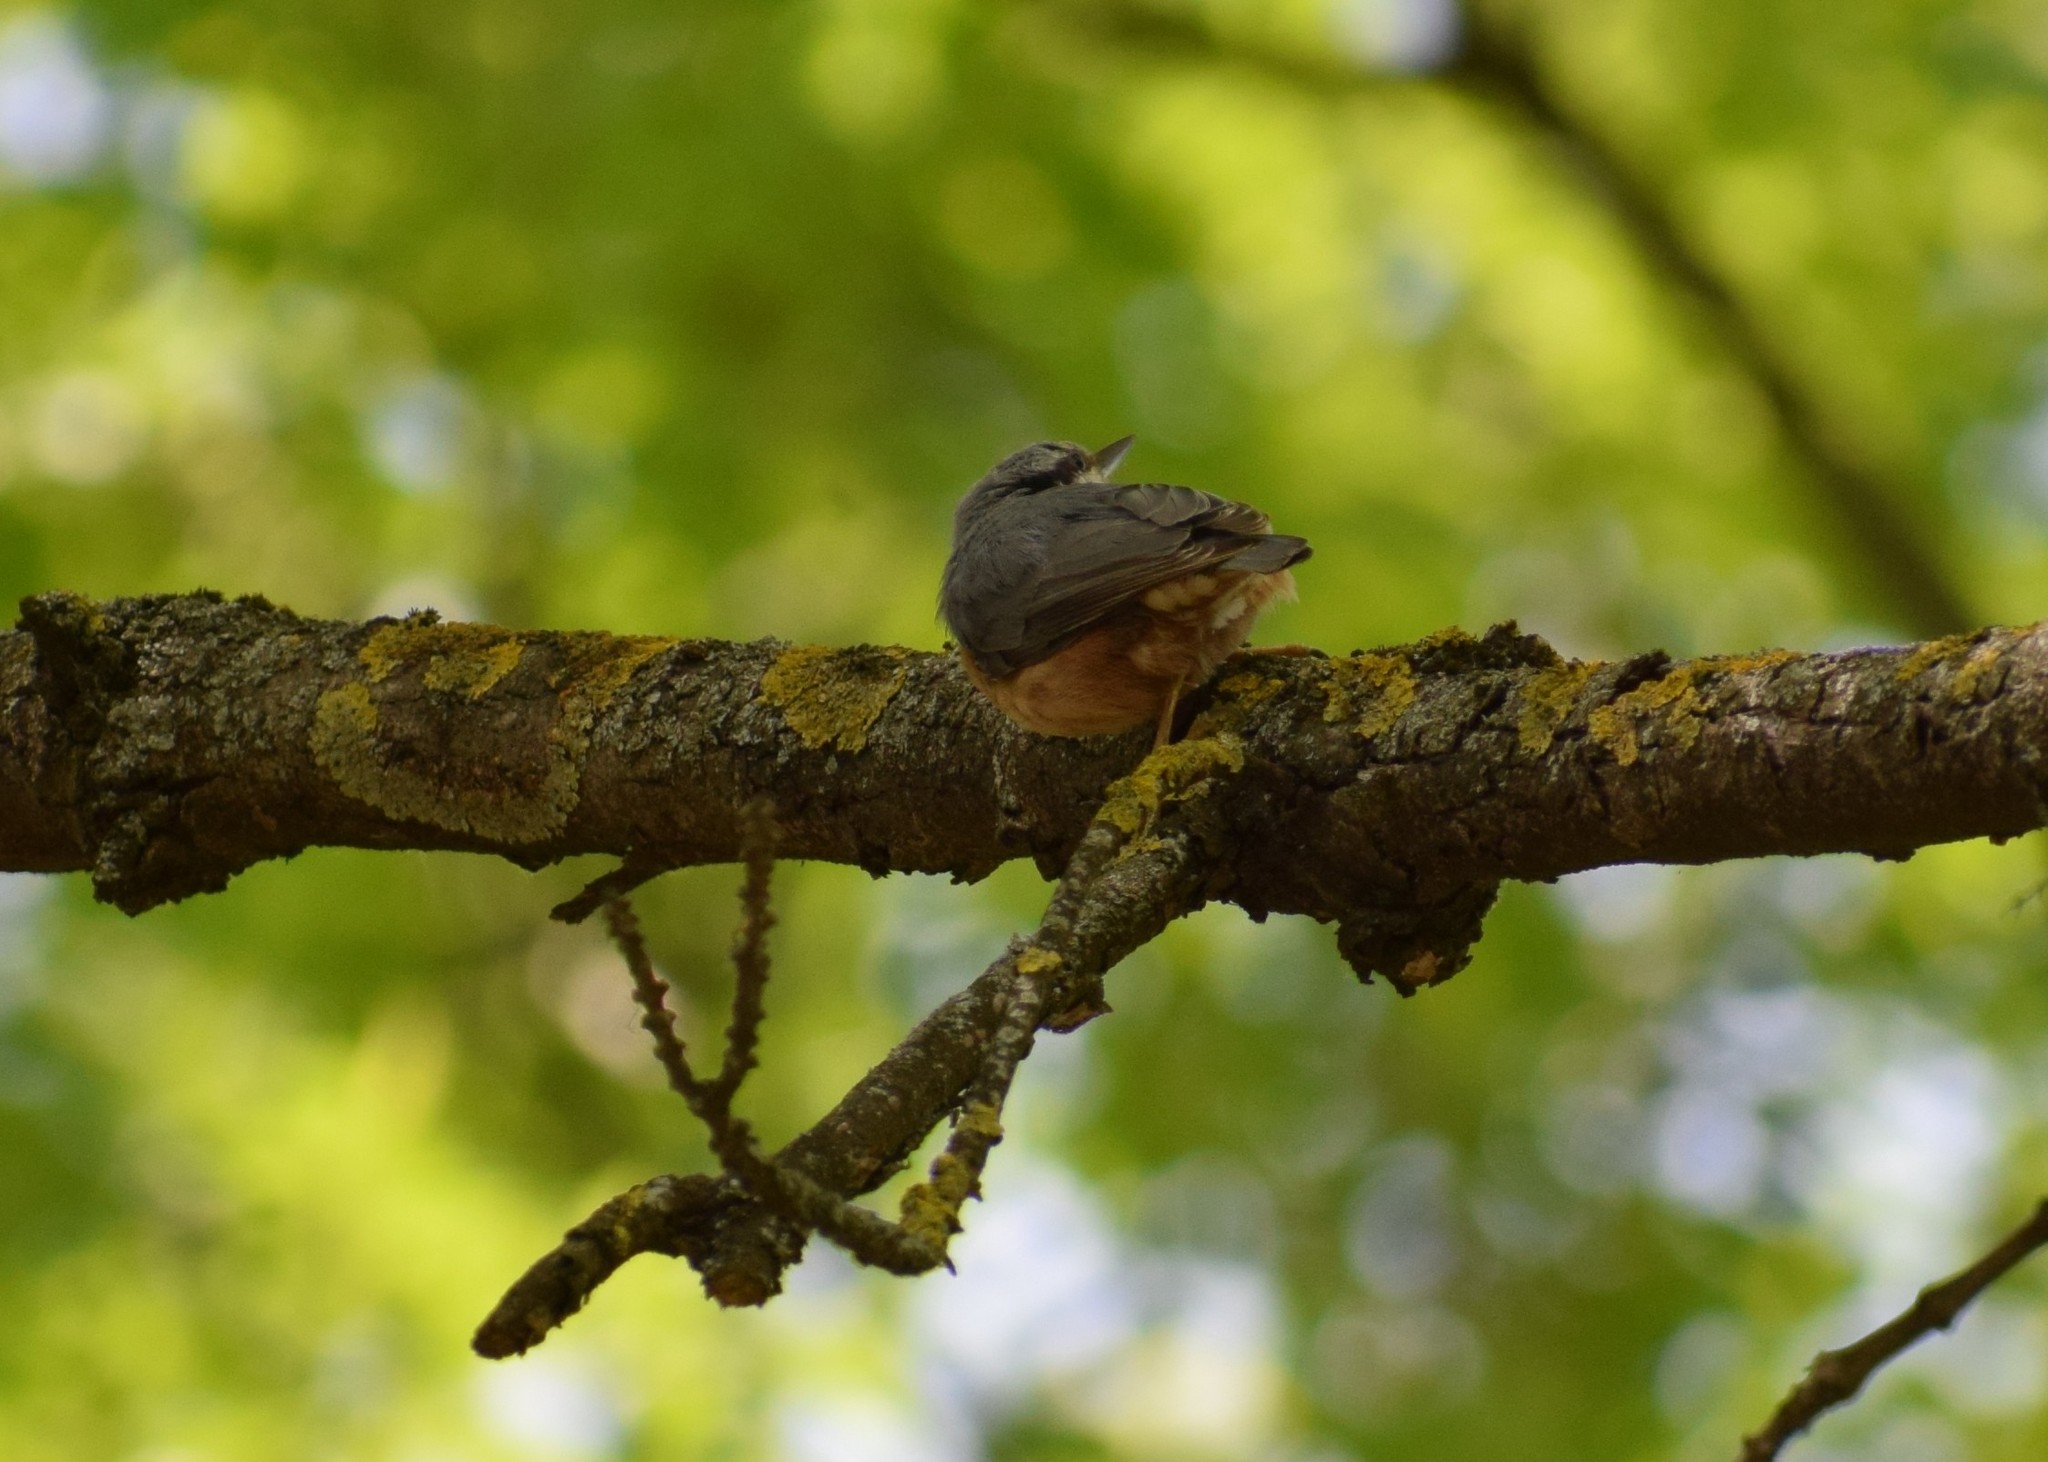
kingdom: Animalia
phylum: Chordata
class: Aves
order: Passeriformes
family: Sittidae
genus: Sitta
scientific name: Sitta europaea
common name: Eurasian nuthatch
